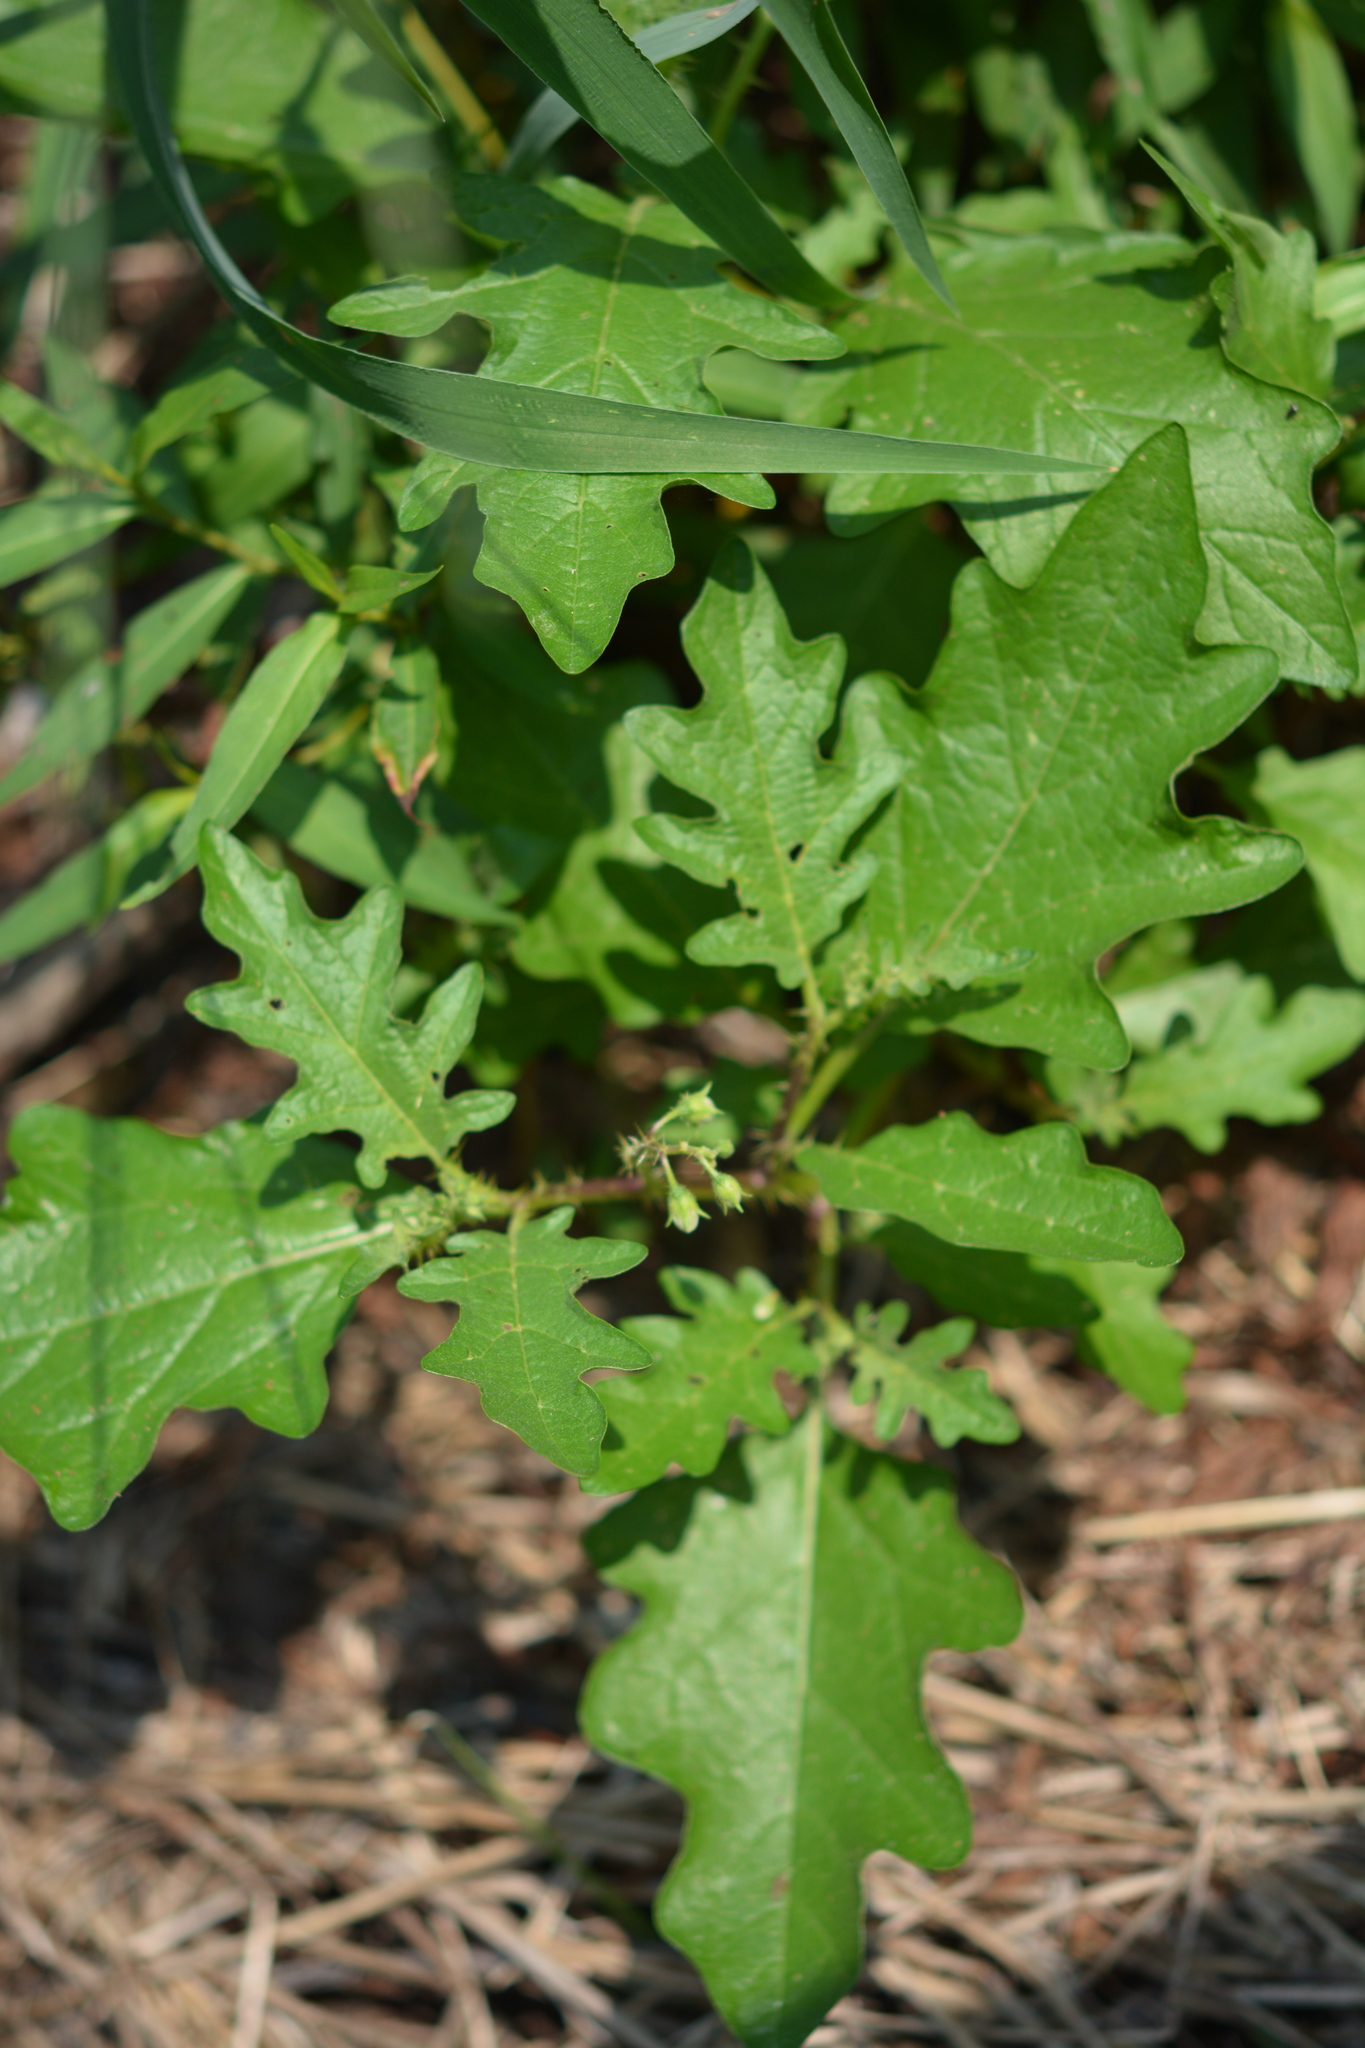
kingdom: Plantae
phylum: Tracheophyta
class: Magnoliopsida
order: Solanales
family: Solanaceae
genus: Solanum
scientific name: Solanum carolinense
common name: Horse-nettle
